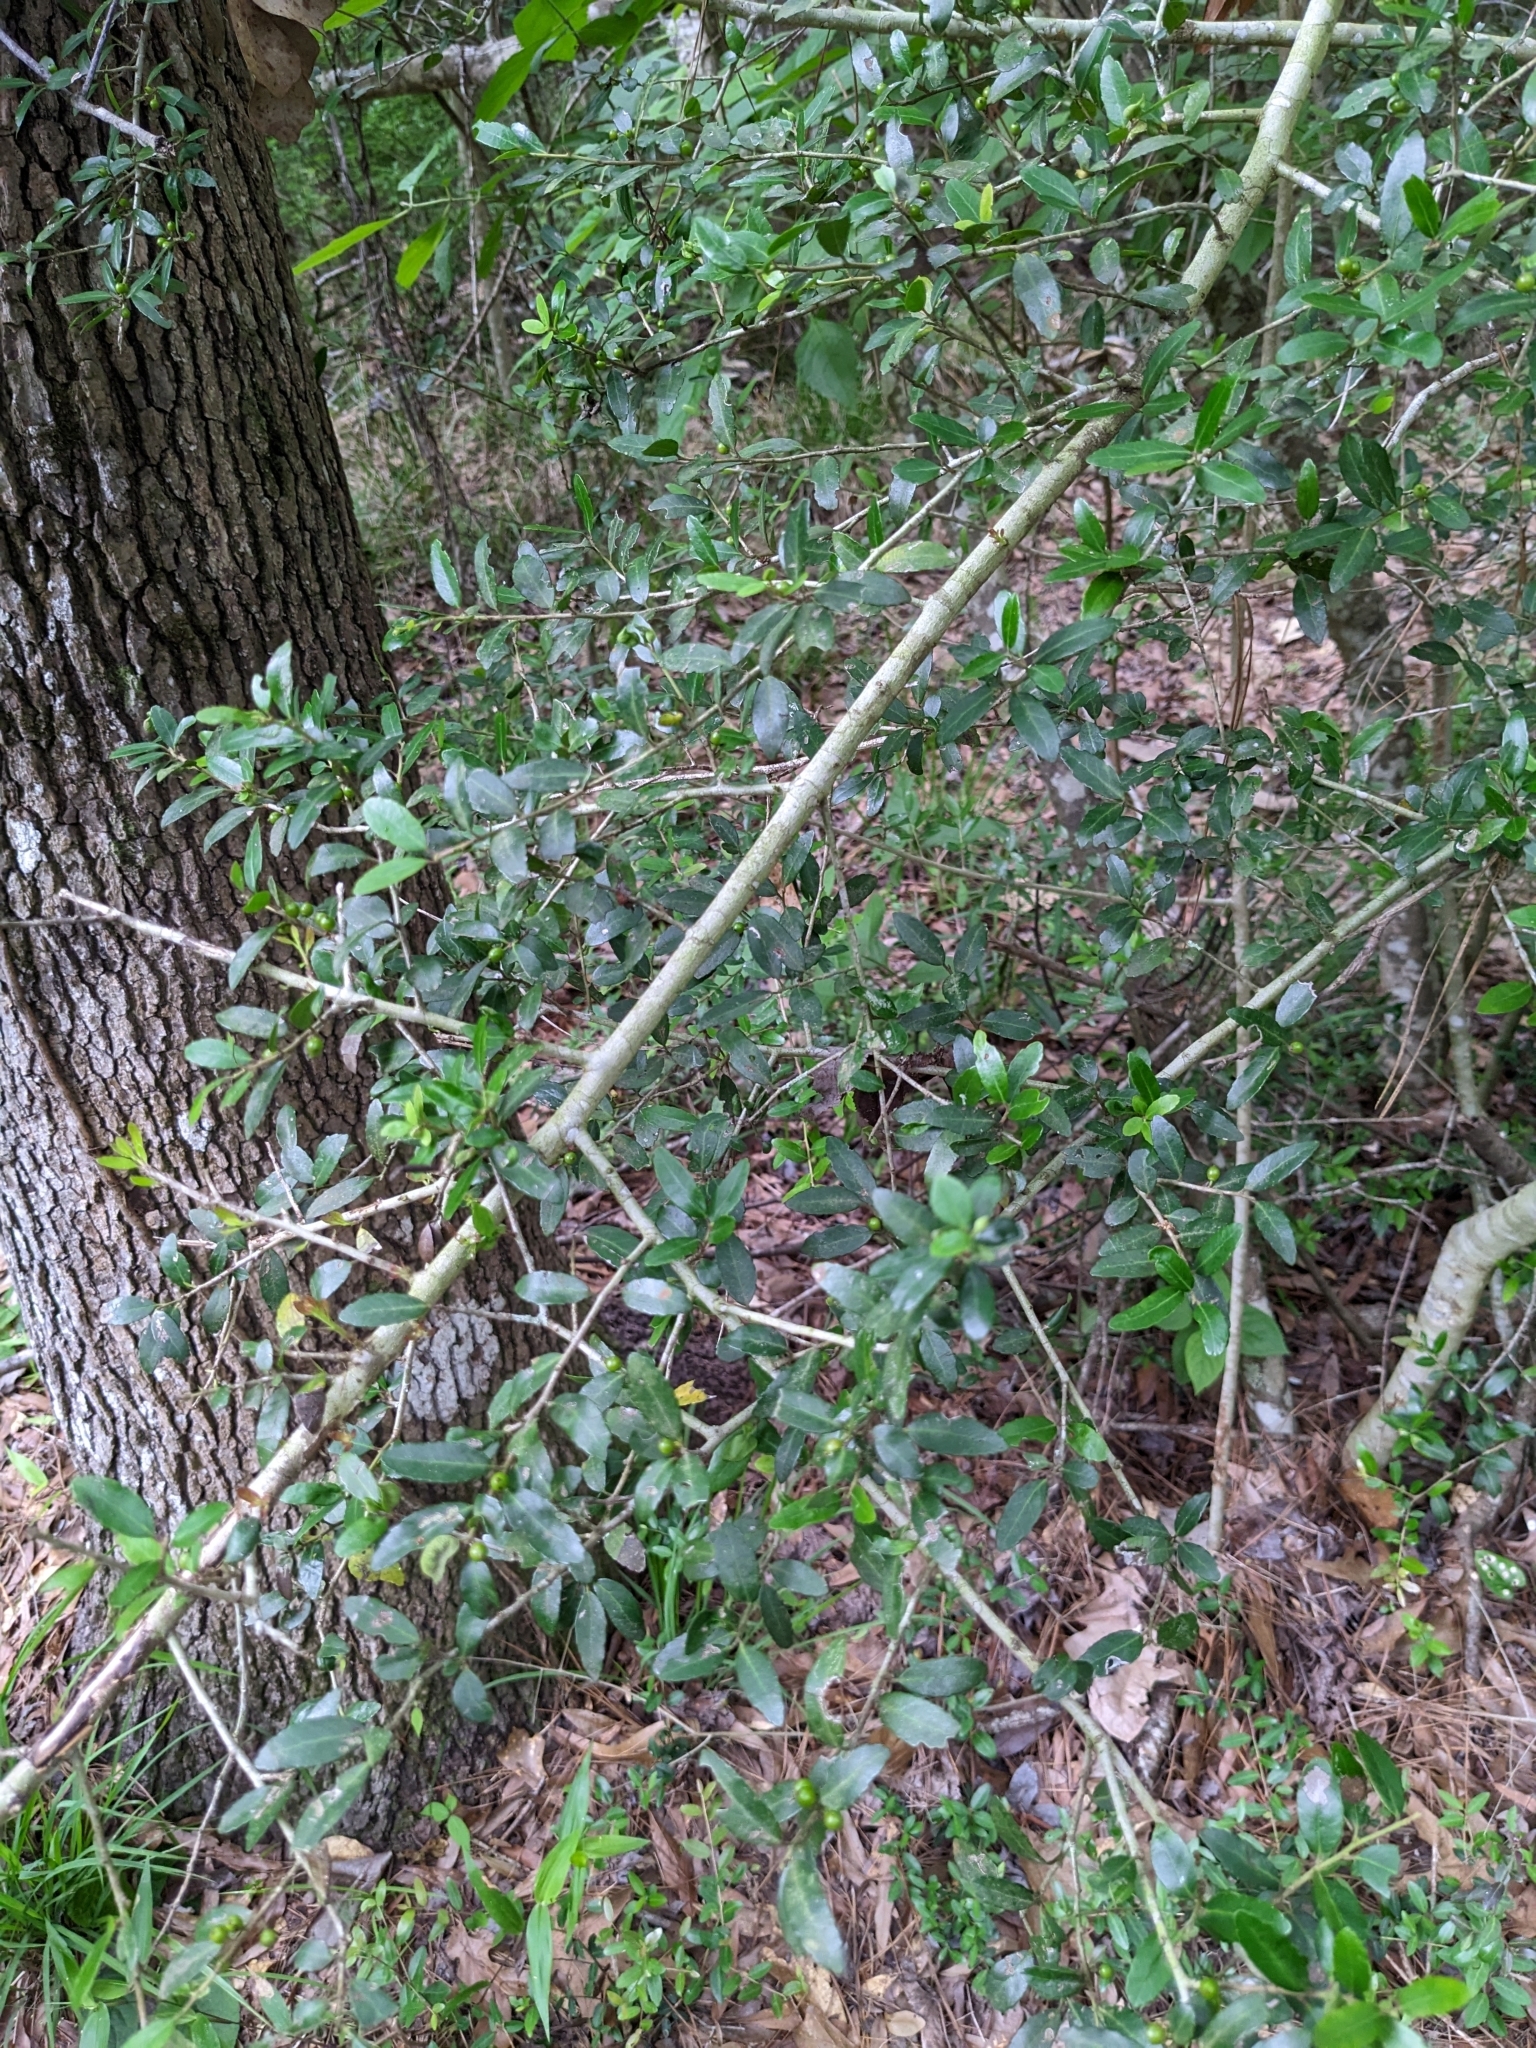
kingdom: Plantae
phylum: Tracheophyta
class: Magnoliopsida
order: Aquifoliales
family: Aquifoliaceae
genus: Ilex
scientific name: Ilex vomitoria
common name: Yaupon holly
